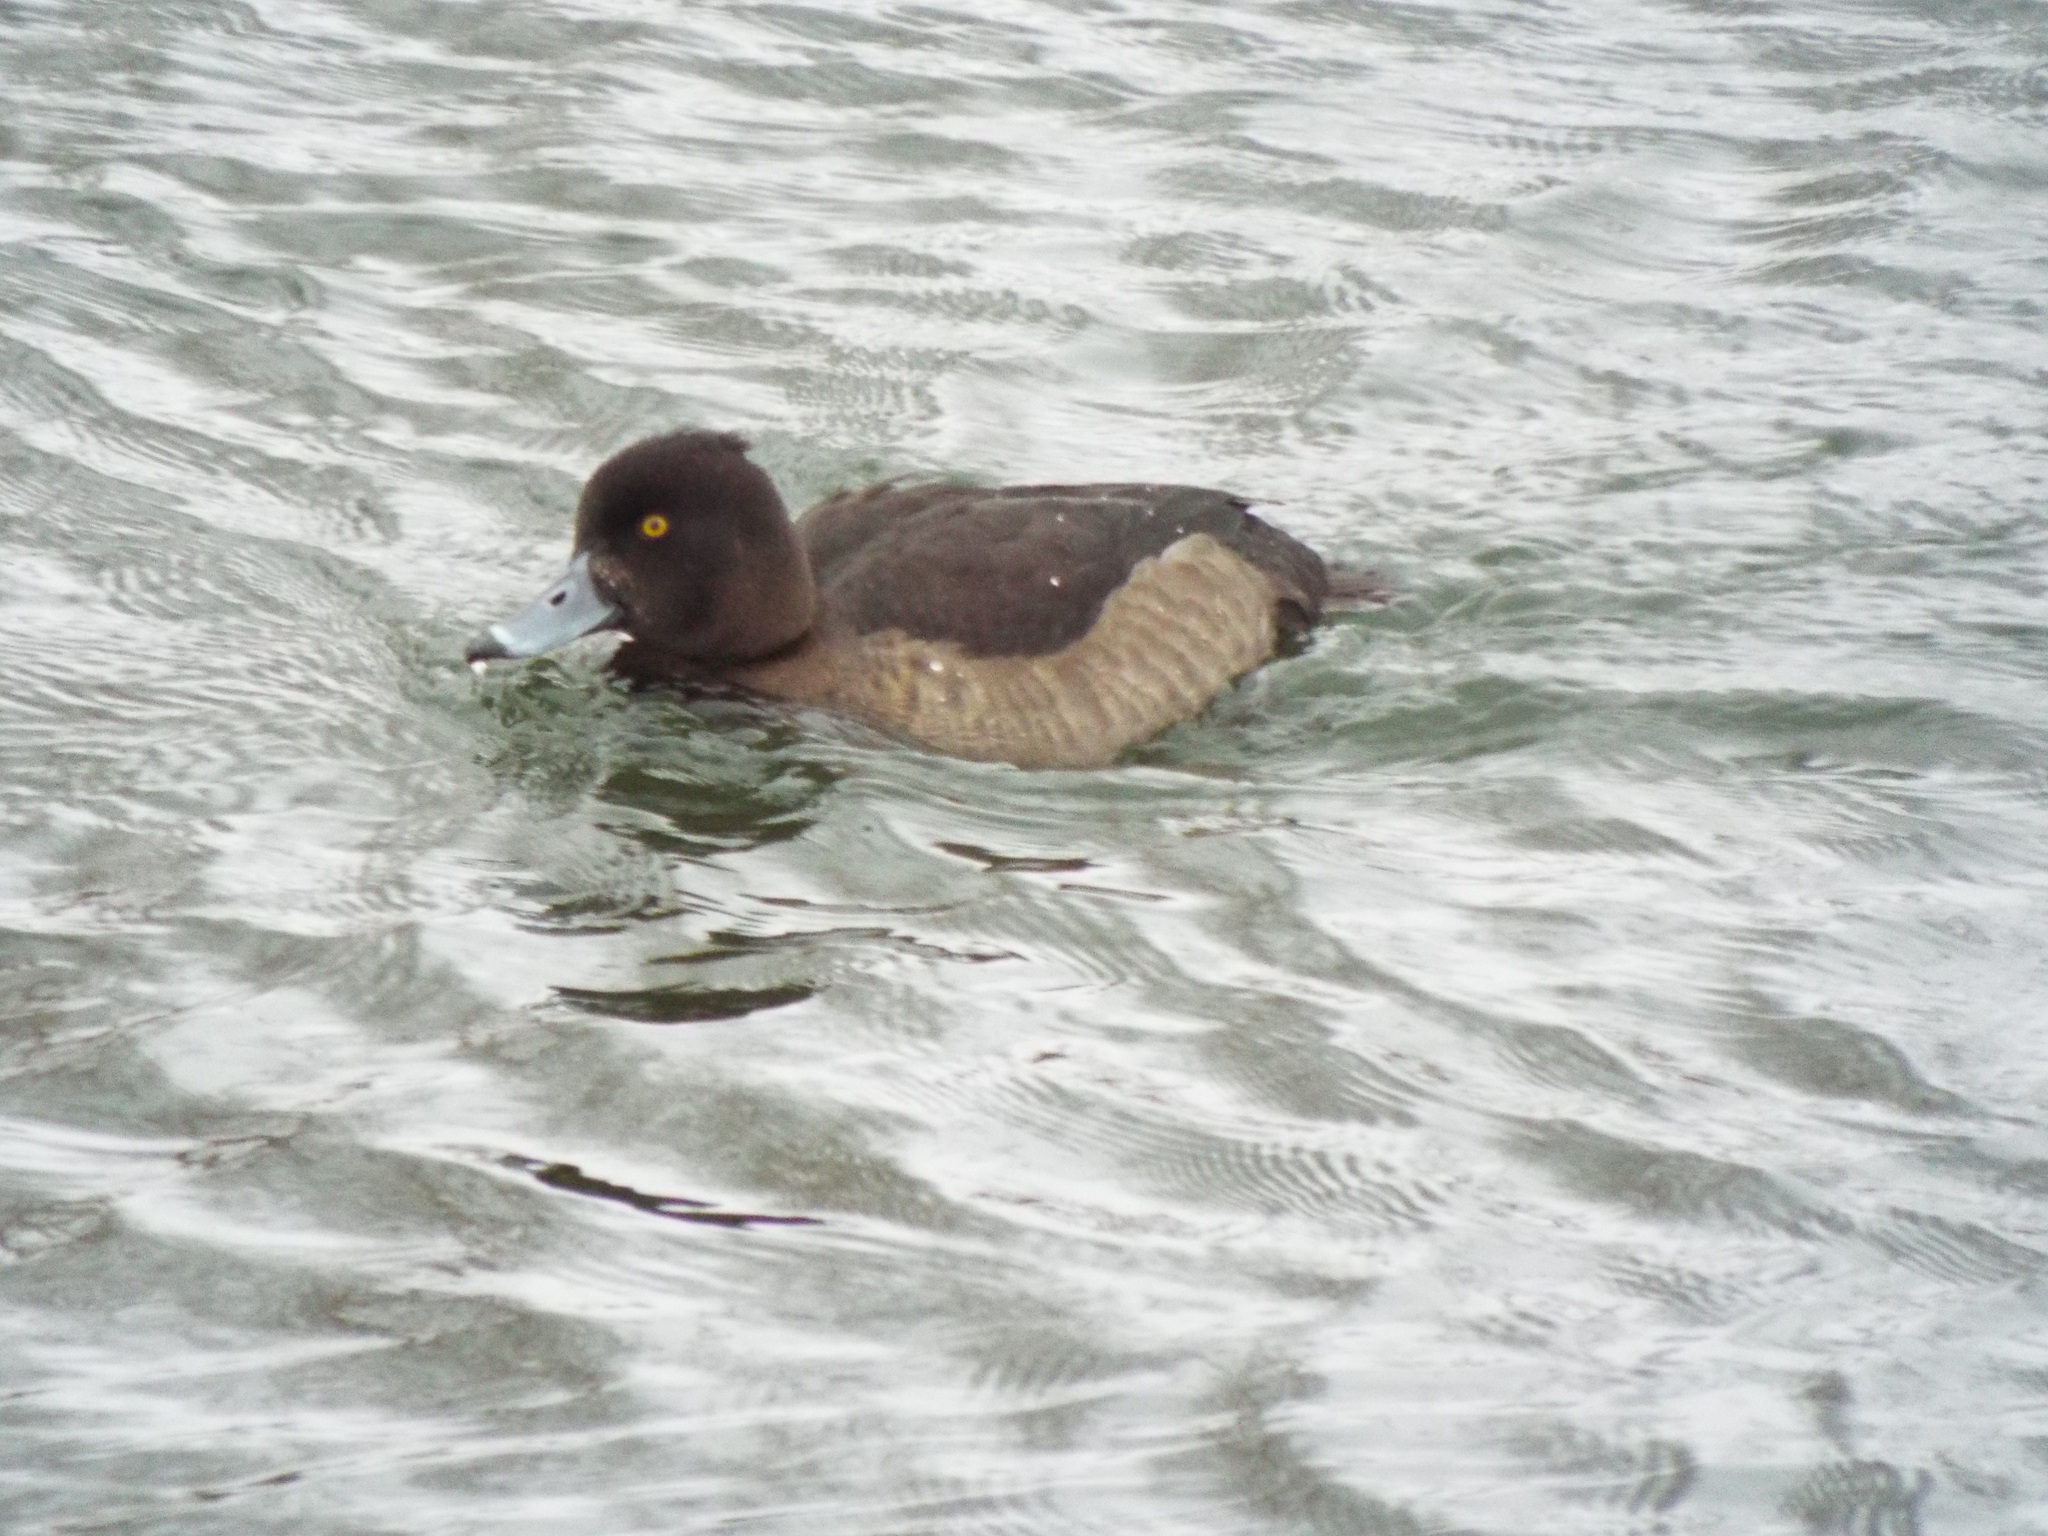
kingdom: Animalia
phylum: Chordata
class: Aves
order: Anseriformes
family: Anatidae
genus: Aythya
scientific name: Aythya fuligula
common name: Tufted duck
